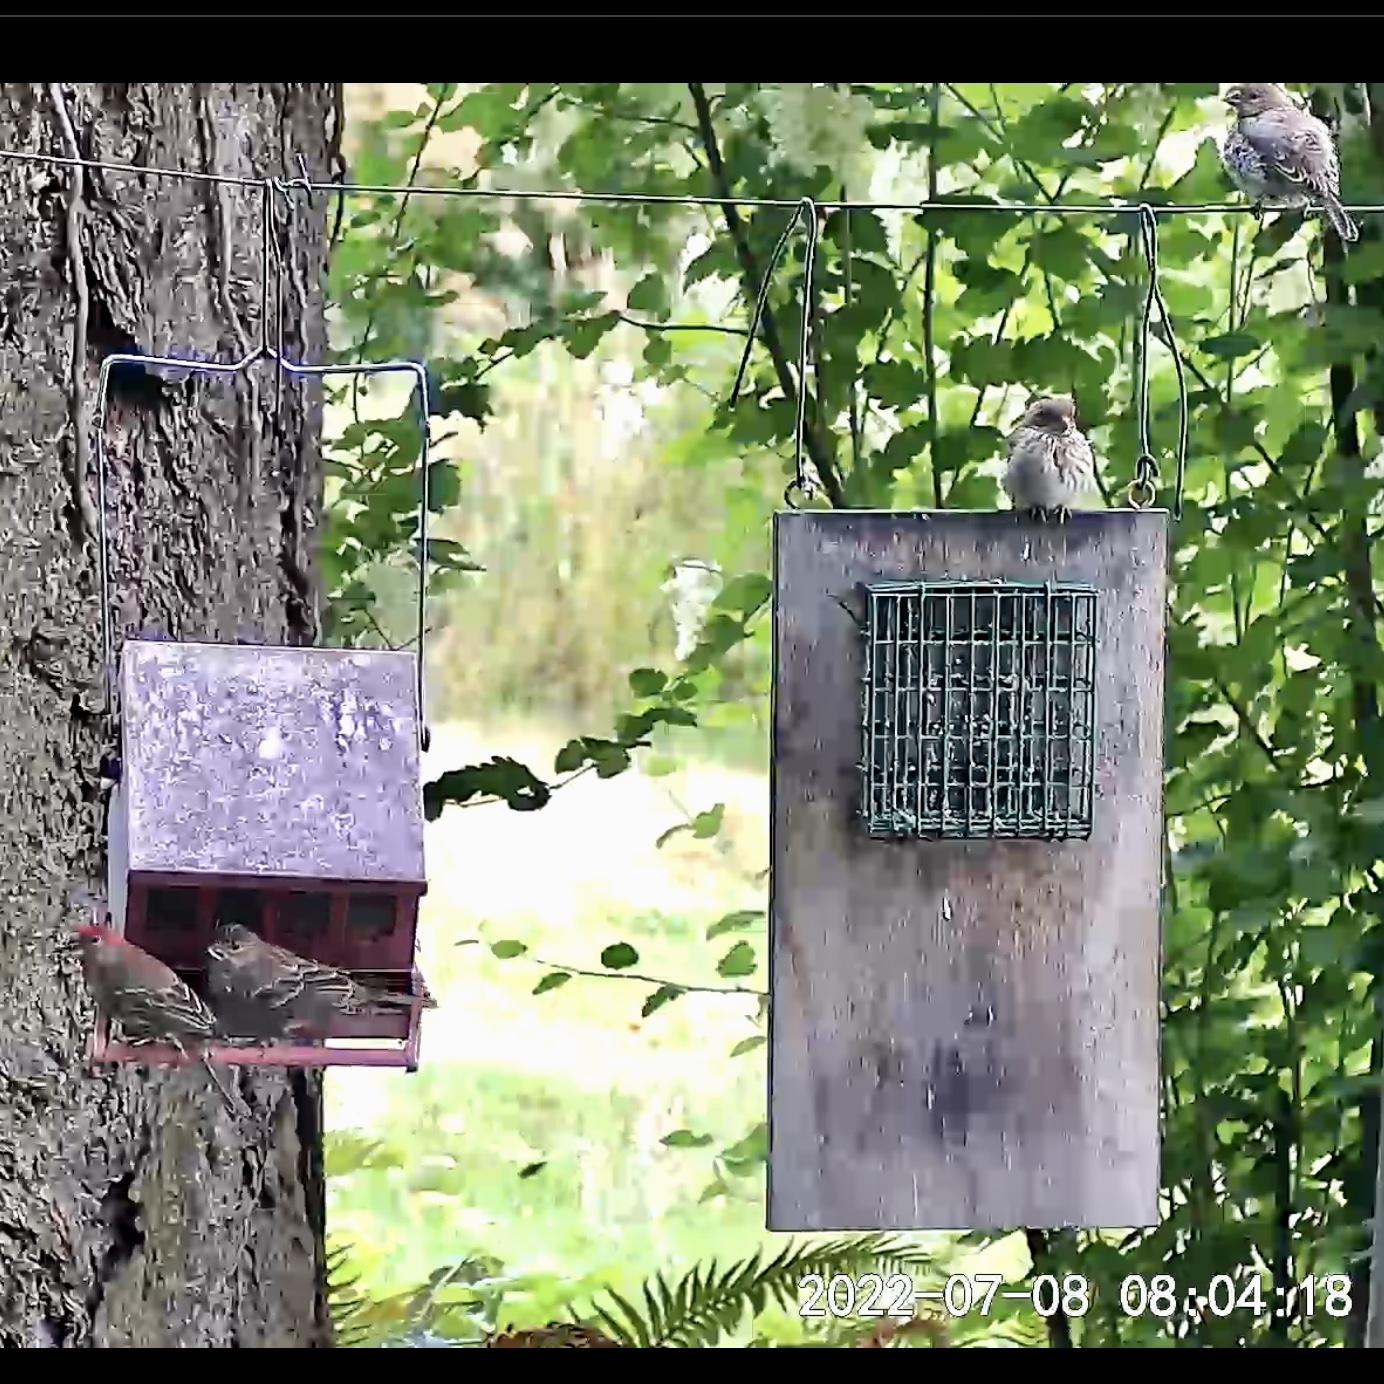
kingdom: Animalia
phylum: Chordata
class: Aves
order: Passeriformes
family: Fringillidae
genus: Haemorhous
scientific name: Haemorhous mexicanus
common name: House finch
